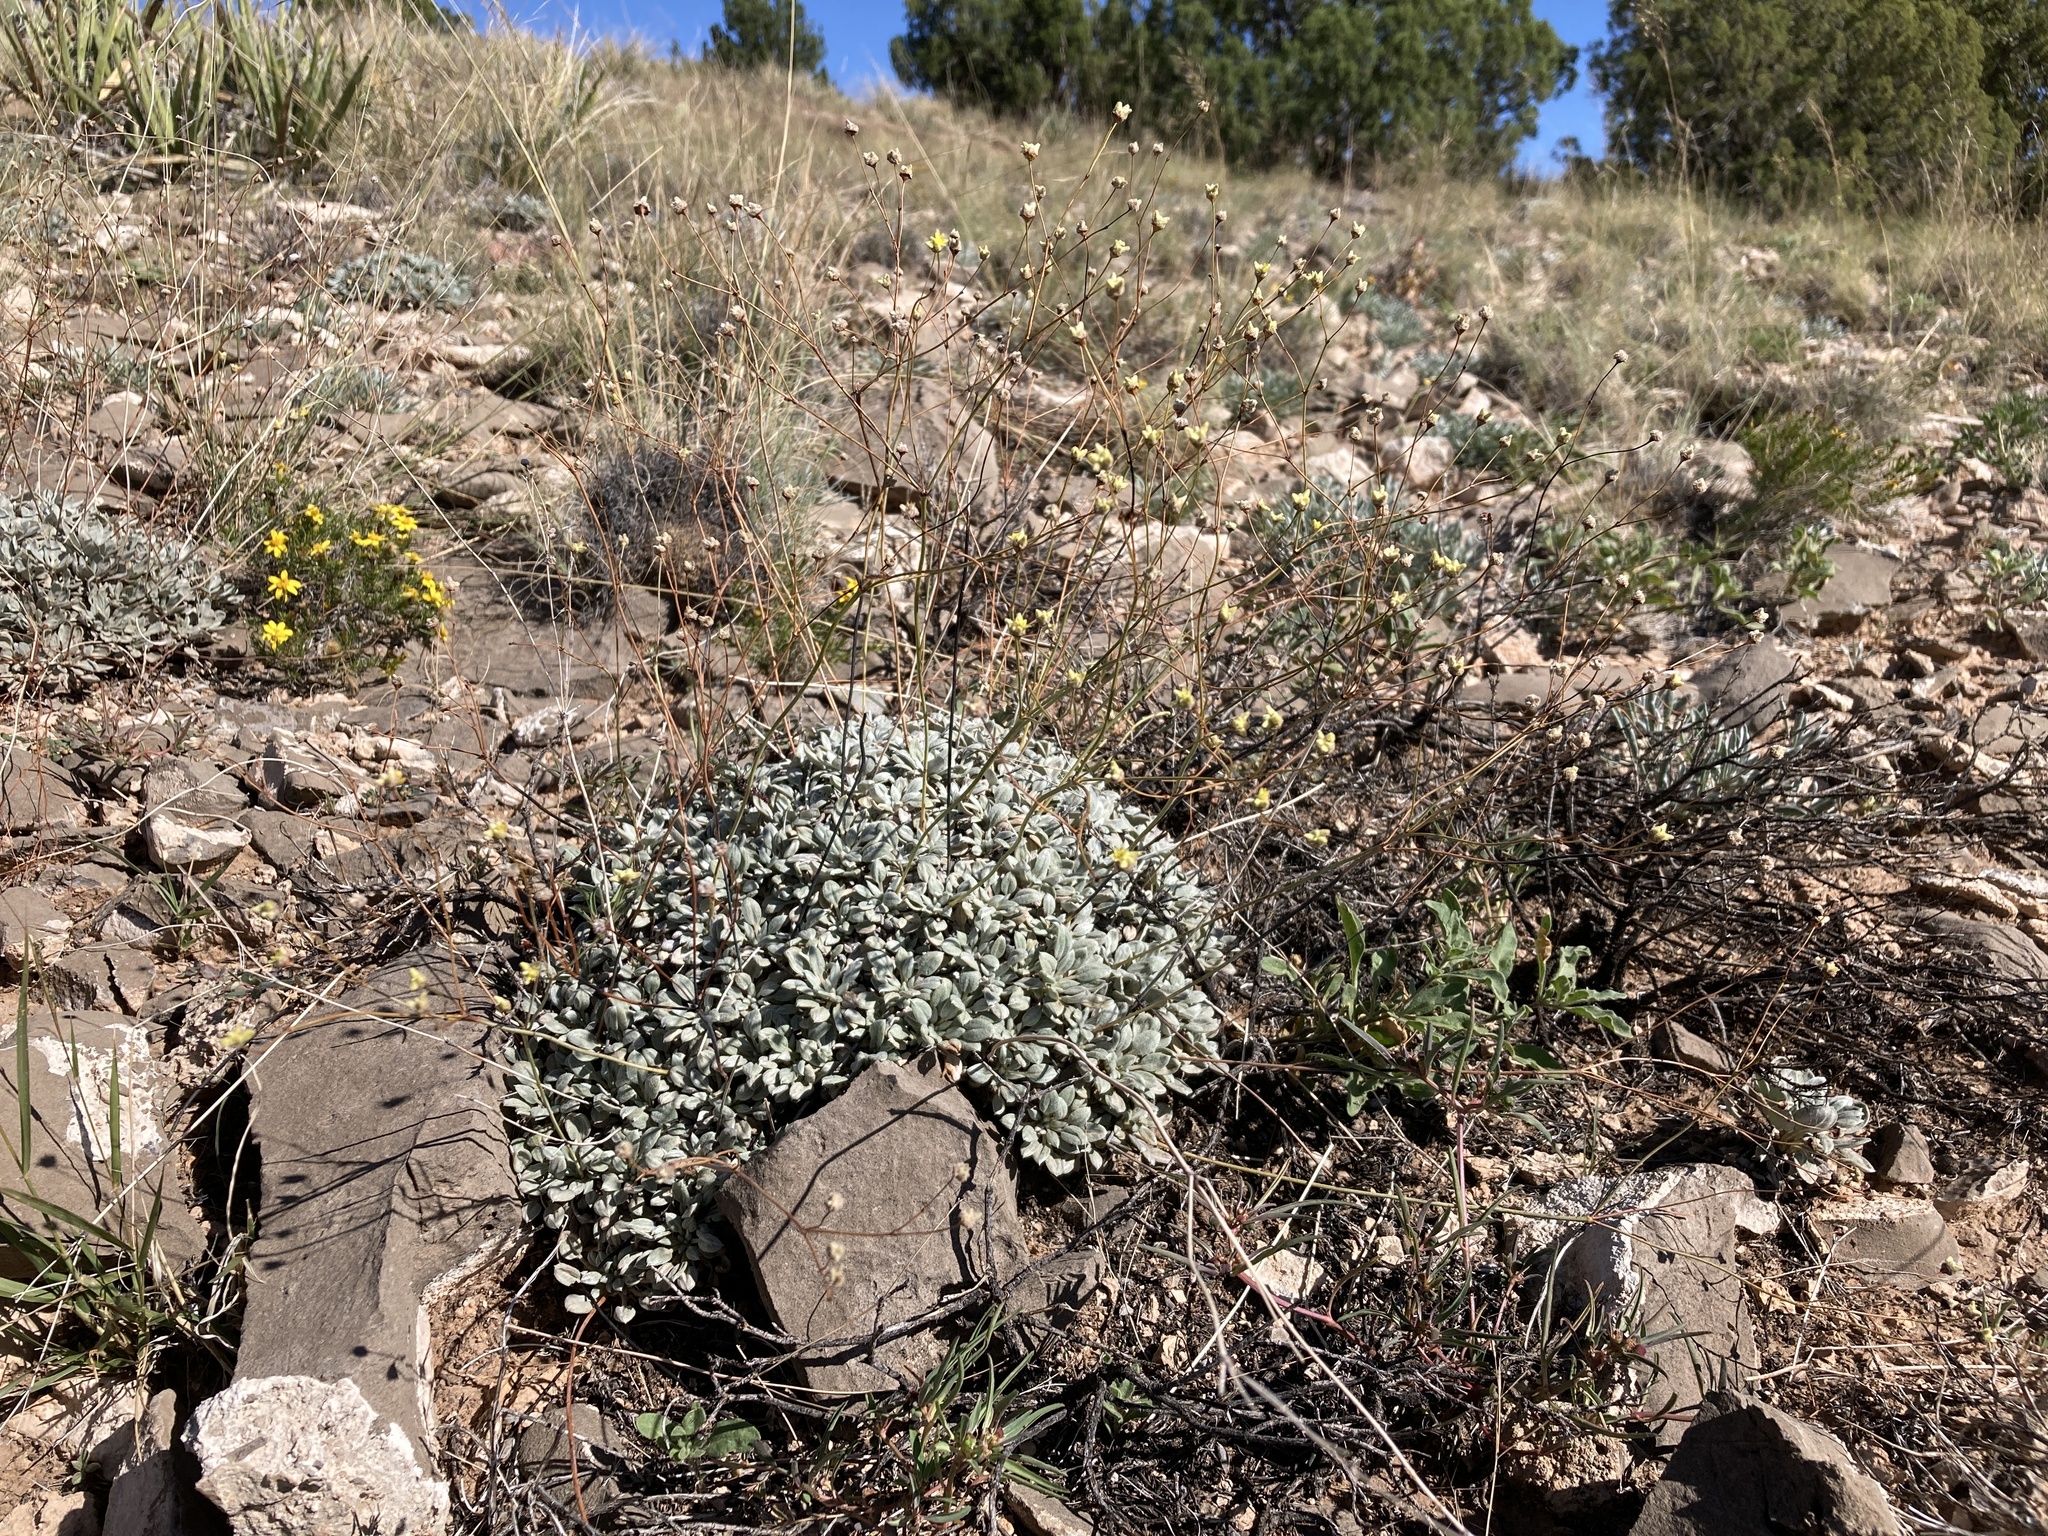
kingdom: Plantae
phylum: Tracheophyta
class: Magnoliopsida
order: Caryophyllales
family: Polygonaceae
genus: Eriogonum
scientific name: Eriogonum havardii
